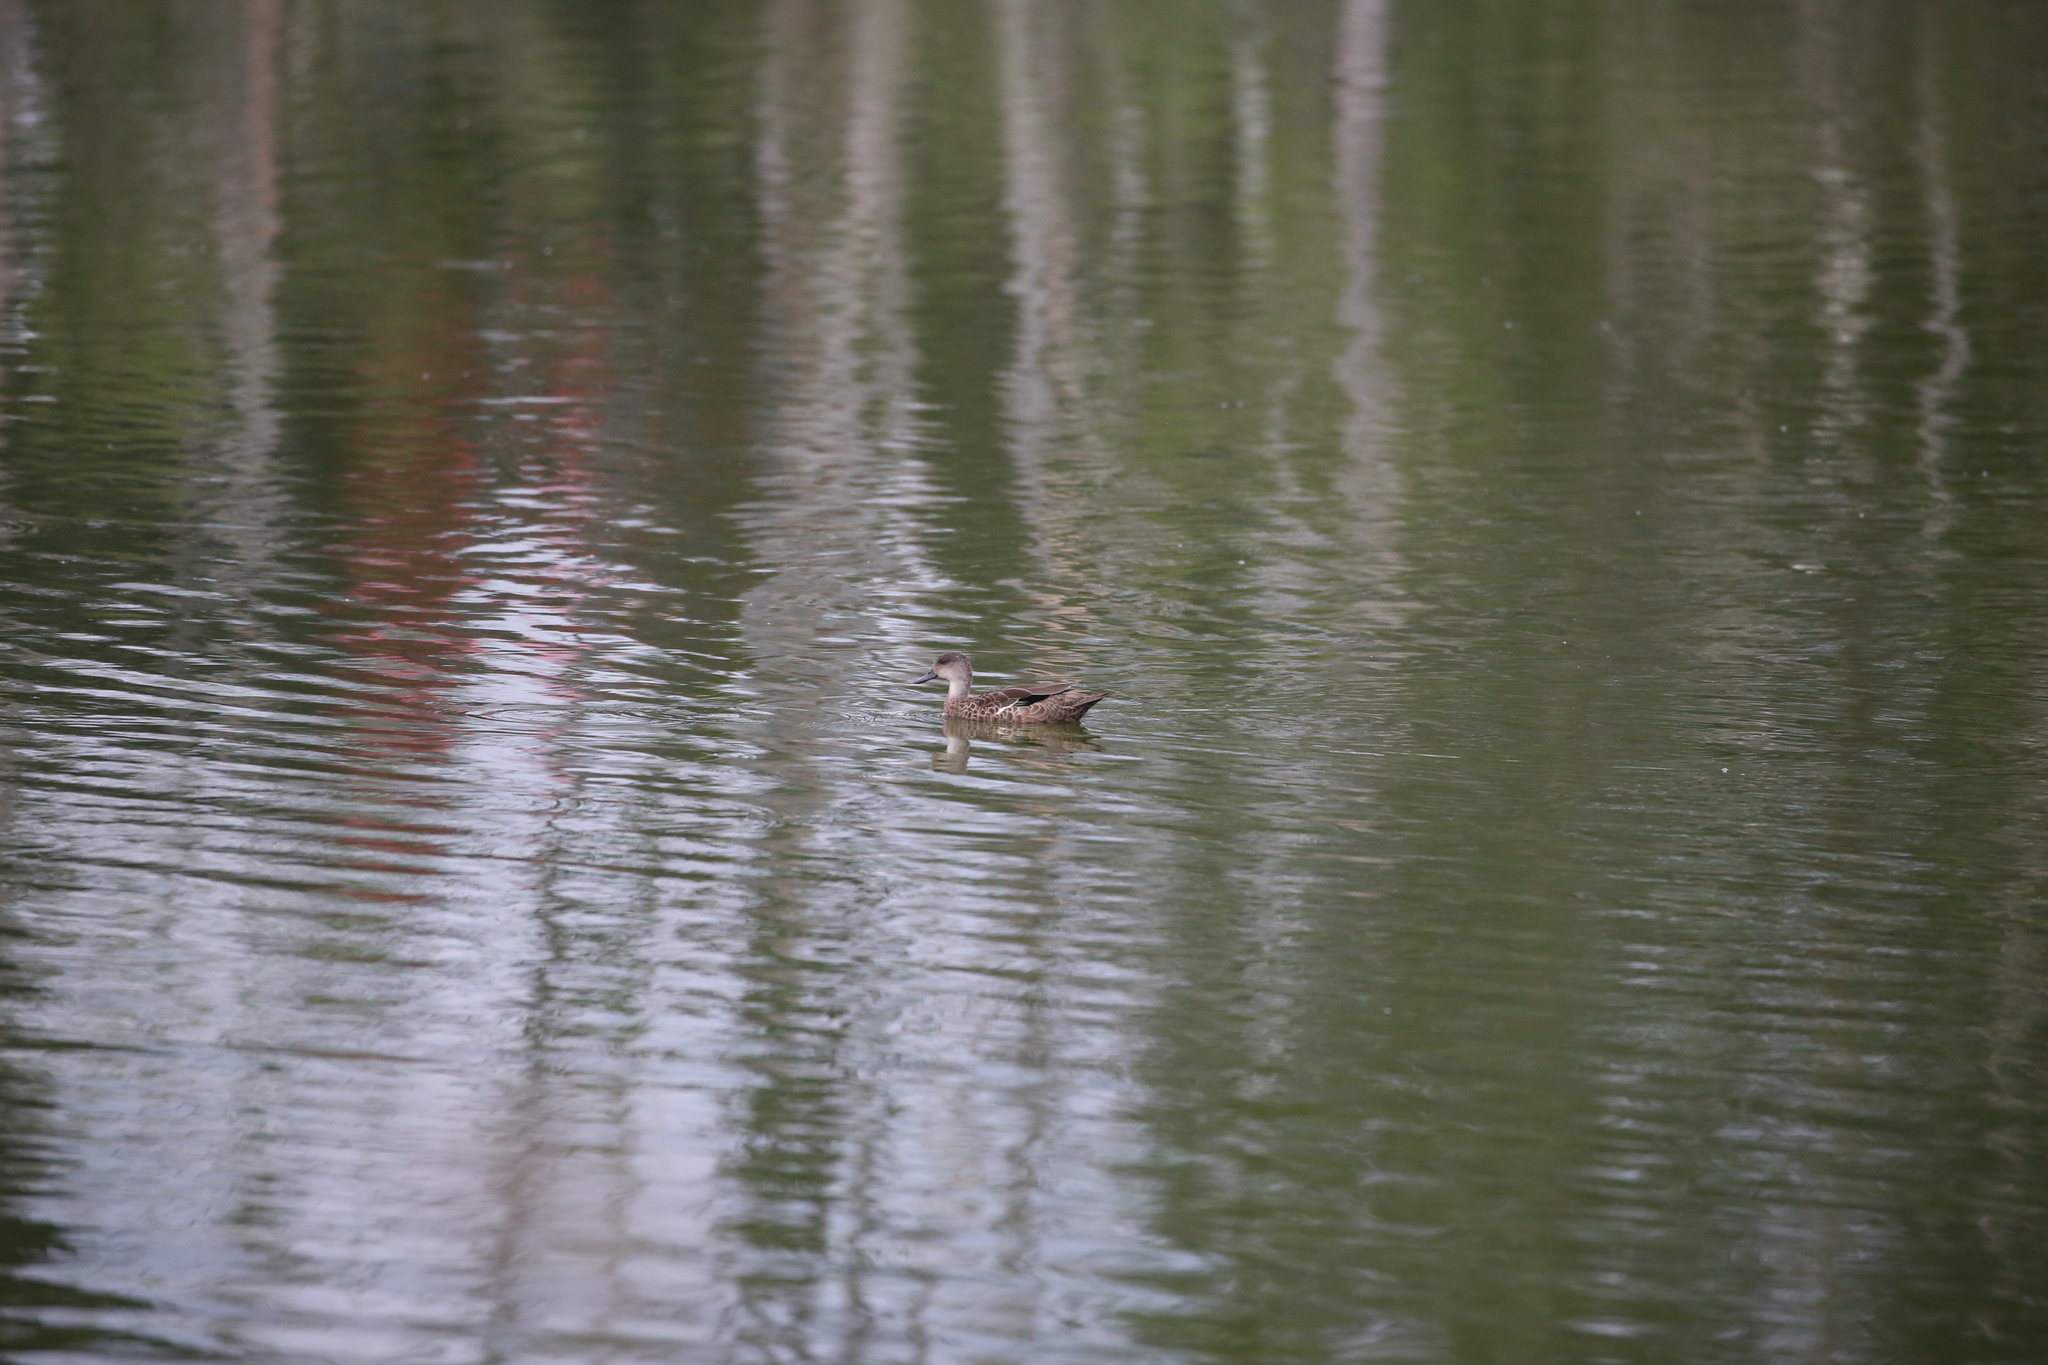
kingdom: Animalia
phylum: Chordata
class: Aves
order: Anseriformes
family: Anatidae
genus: Anas
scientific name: Anas gracilis
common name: Grey teal
